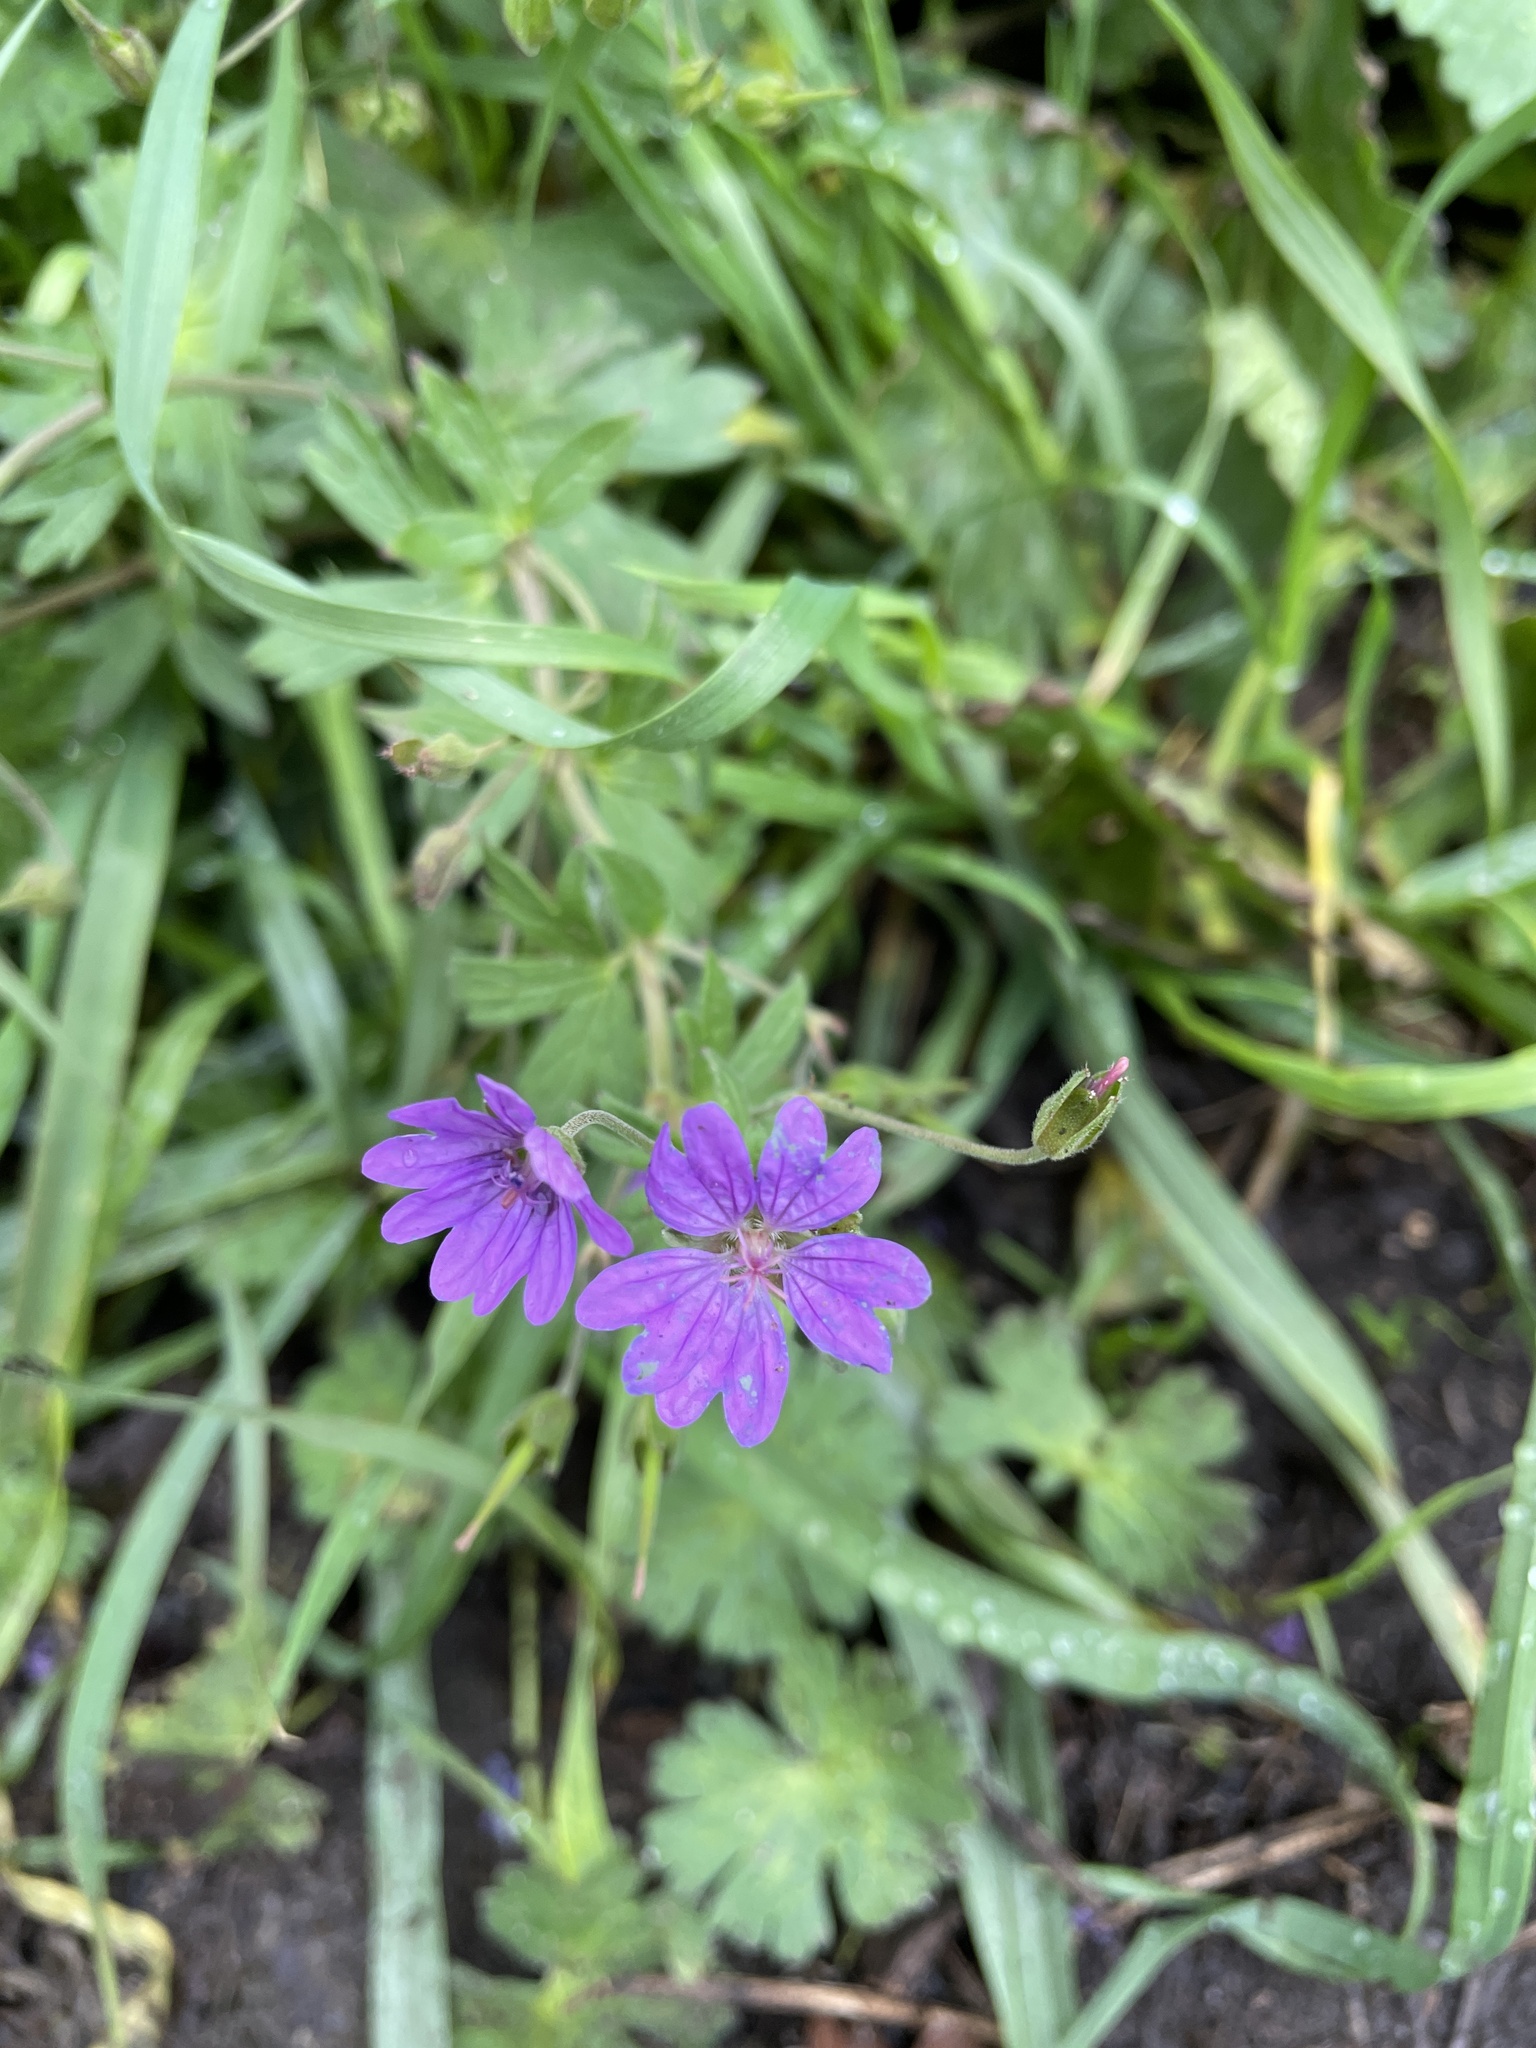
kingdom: Plantae
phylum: Tracheophyta
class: Magnoliopsida
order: Geraniales
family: Geraniaceae
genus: Geranium
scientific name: Geranium pyrenaicum
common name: Hedgerow crane's-bill
